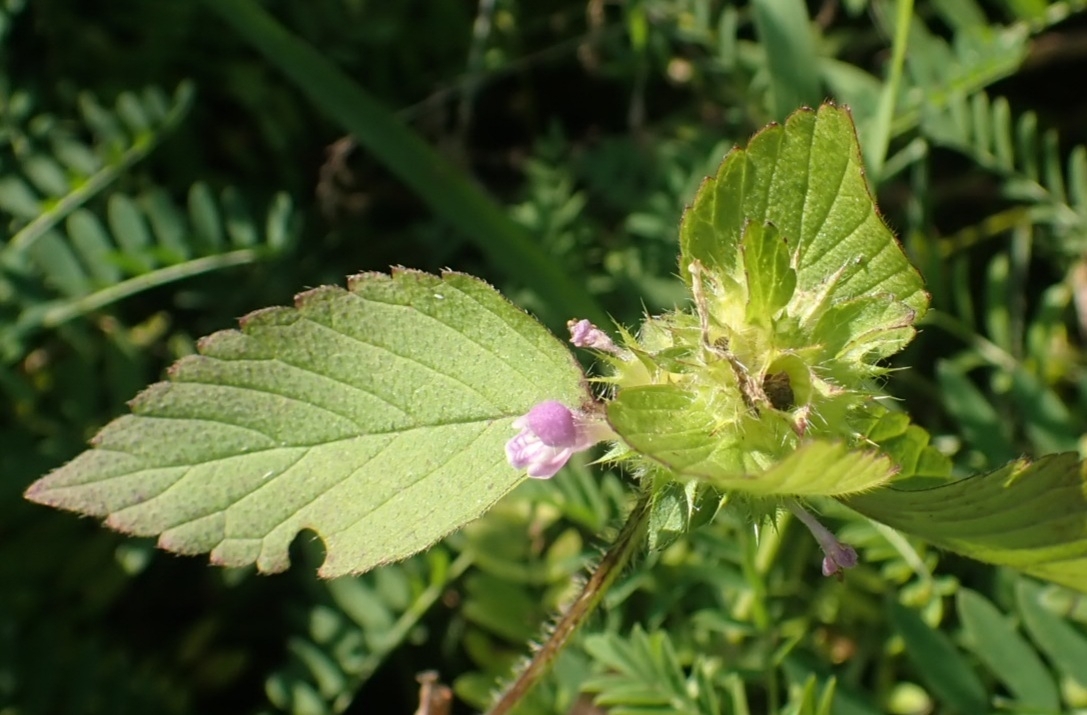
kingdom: Plantae
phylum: Tracheophyta
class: Magnoliopsida
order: Lamiales
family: Lamiaceae
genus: Galeopsis
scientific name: Galeopsis bifida
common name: Bifid hemp-nettle
